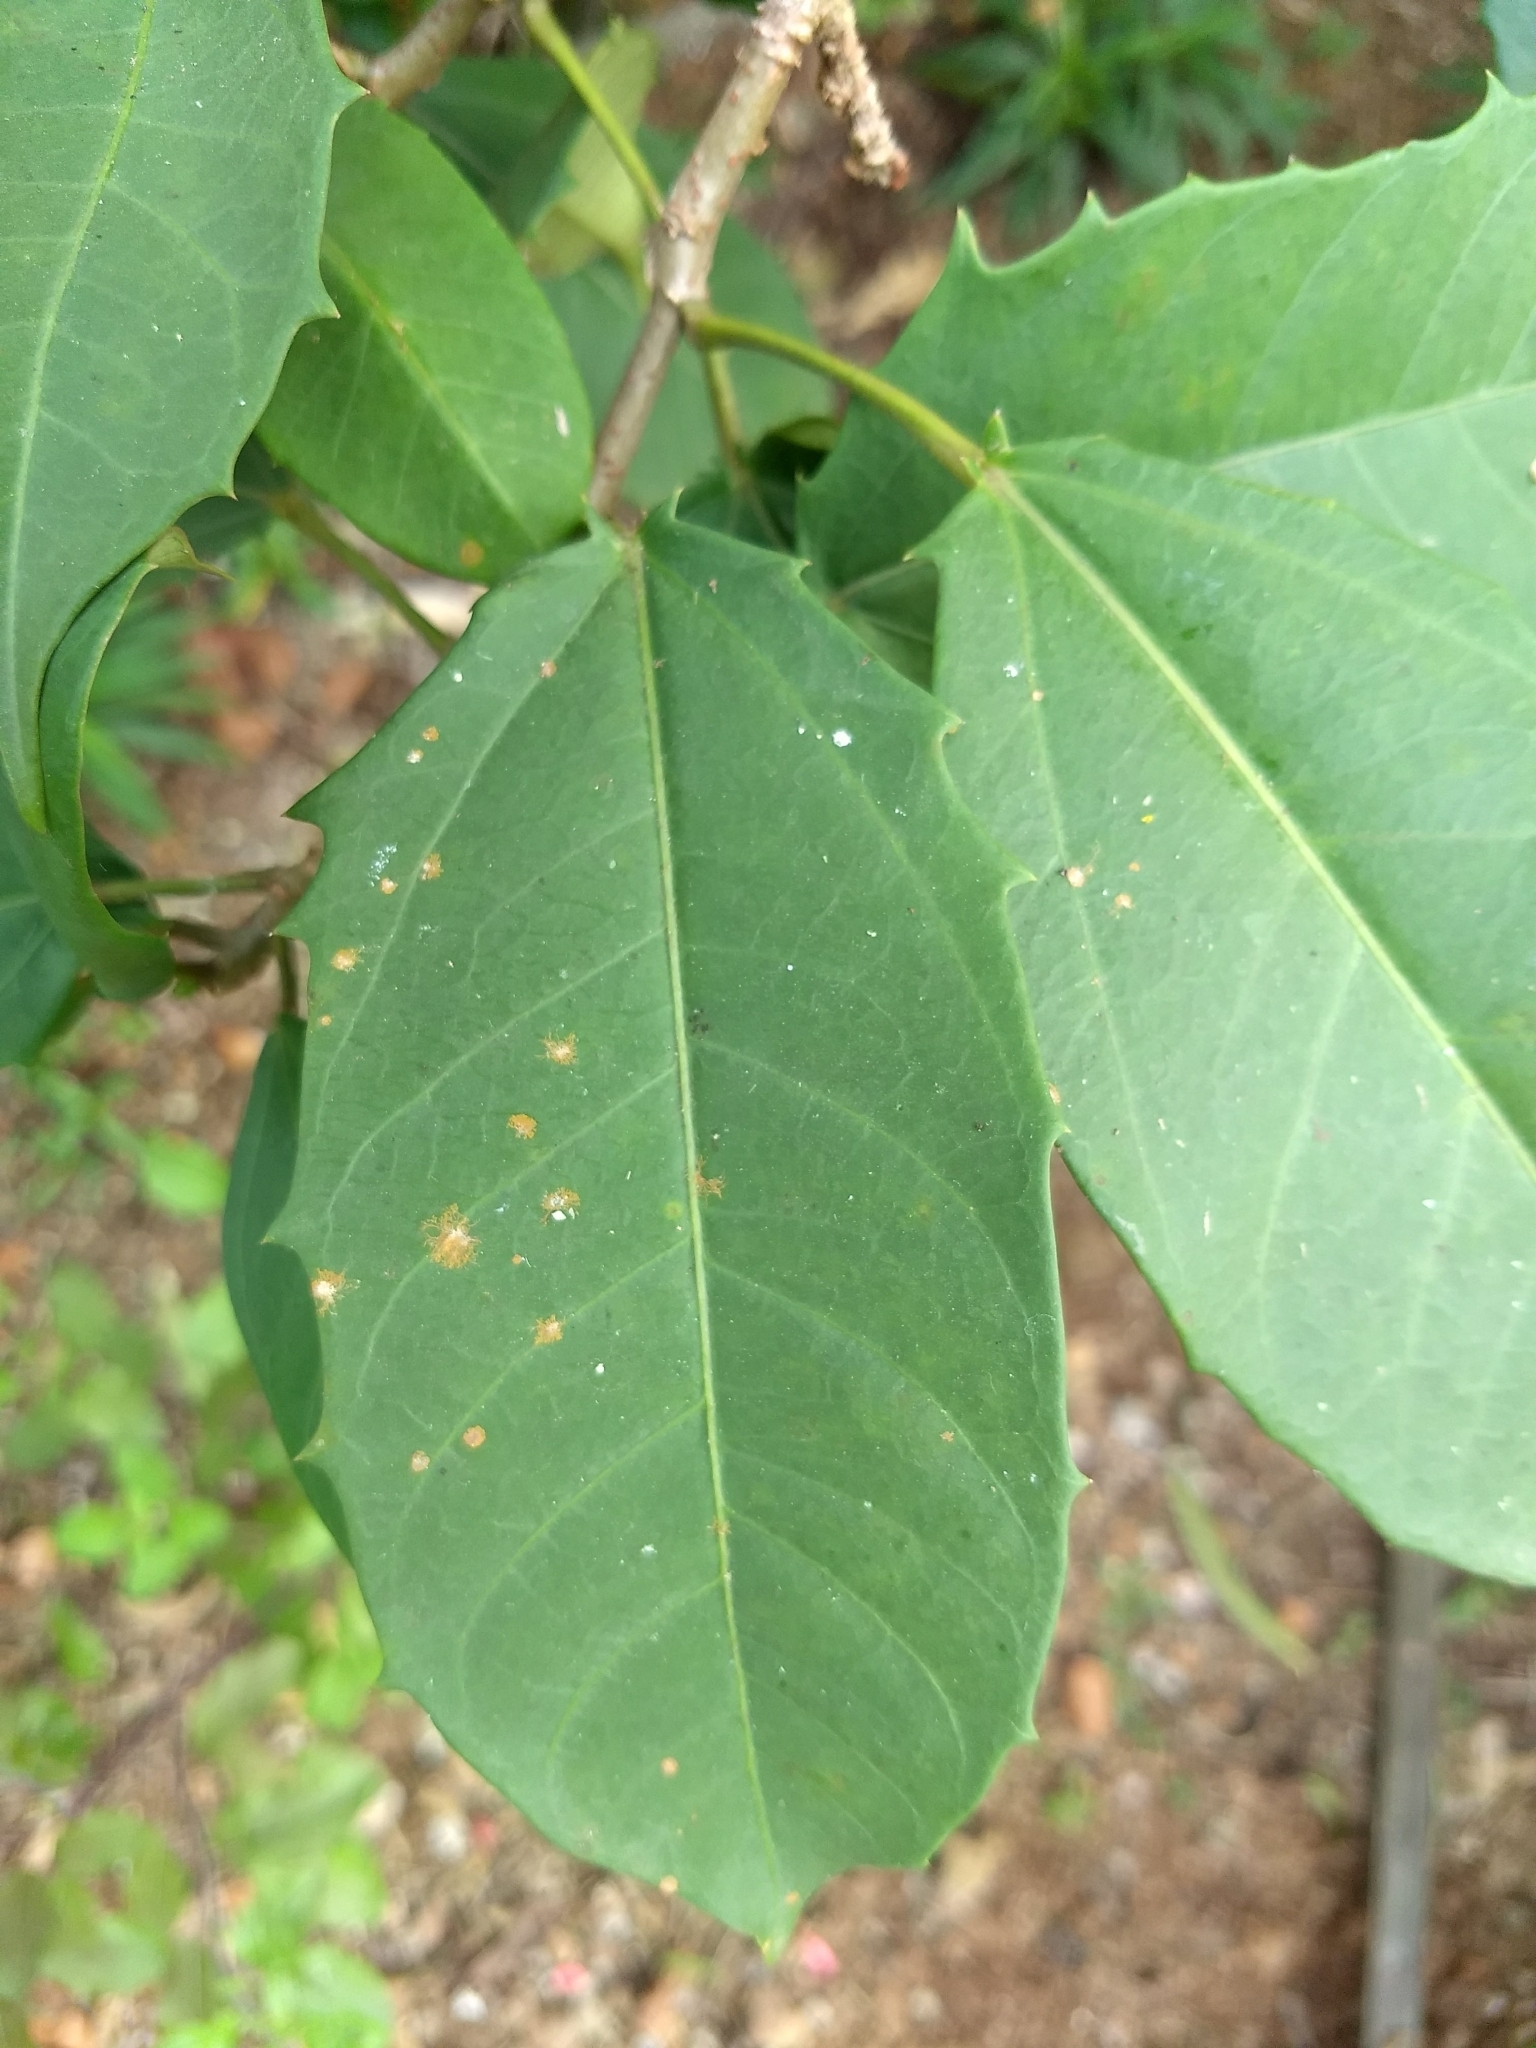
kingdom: Plantae
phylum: Tracheophyta
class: Magnoliopsida
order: Malpighiales
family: Euphorbiaceae
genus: Jatropha
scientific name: Jatropha integerrima
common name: Peregrina
